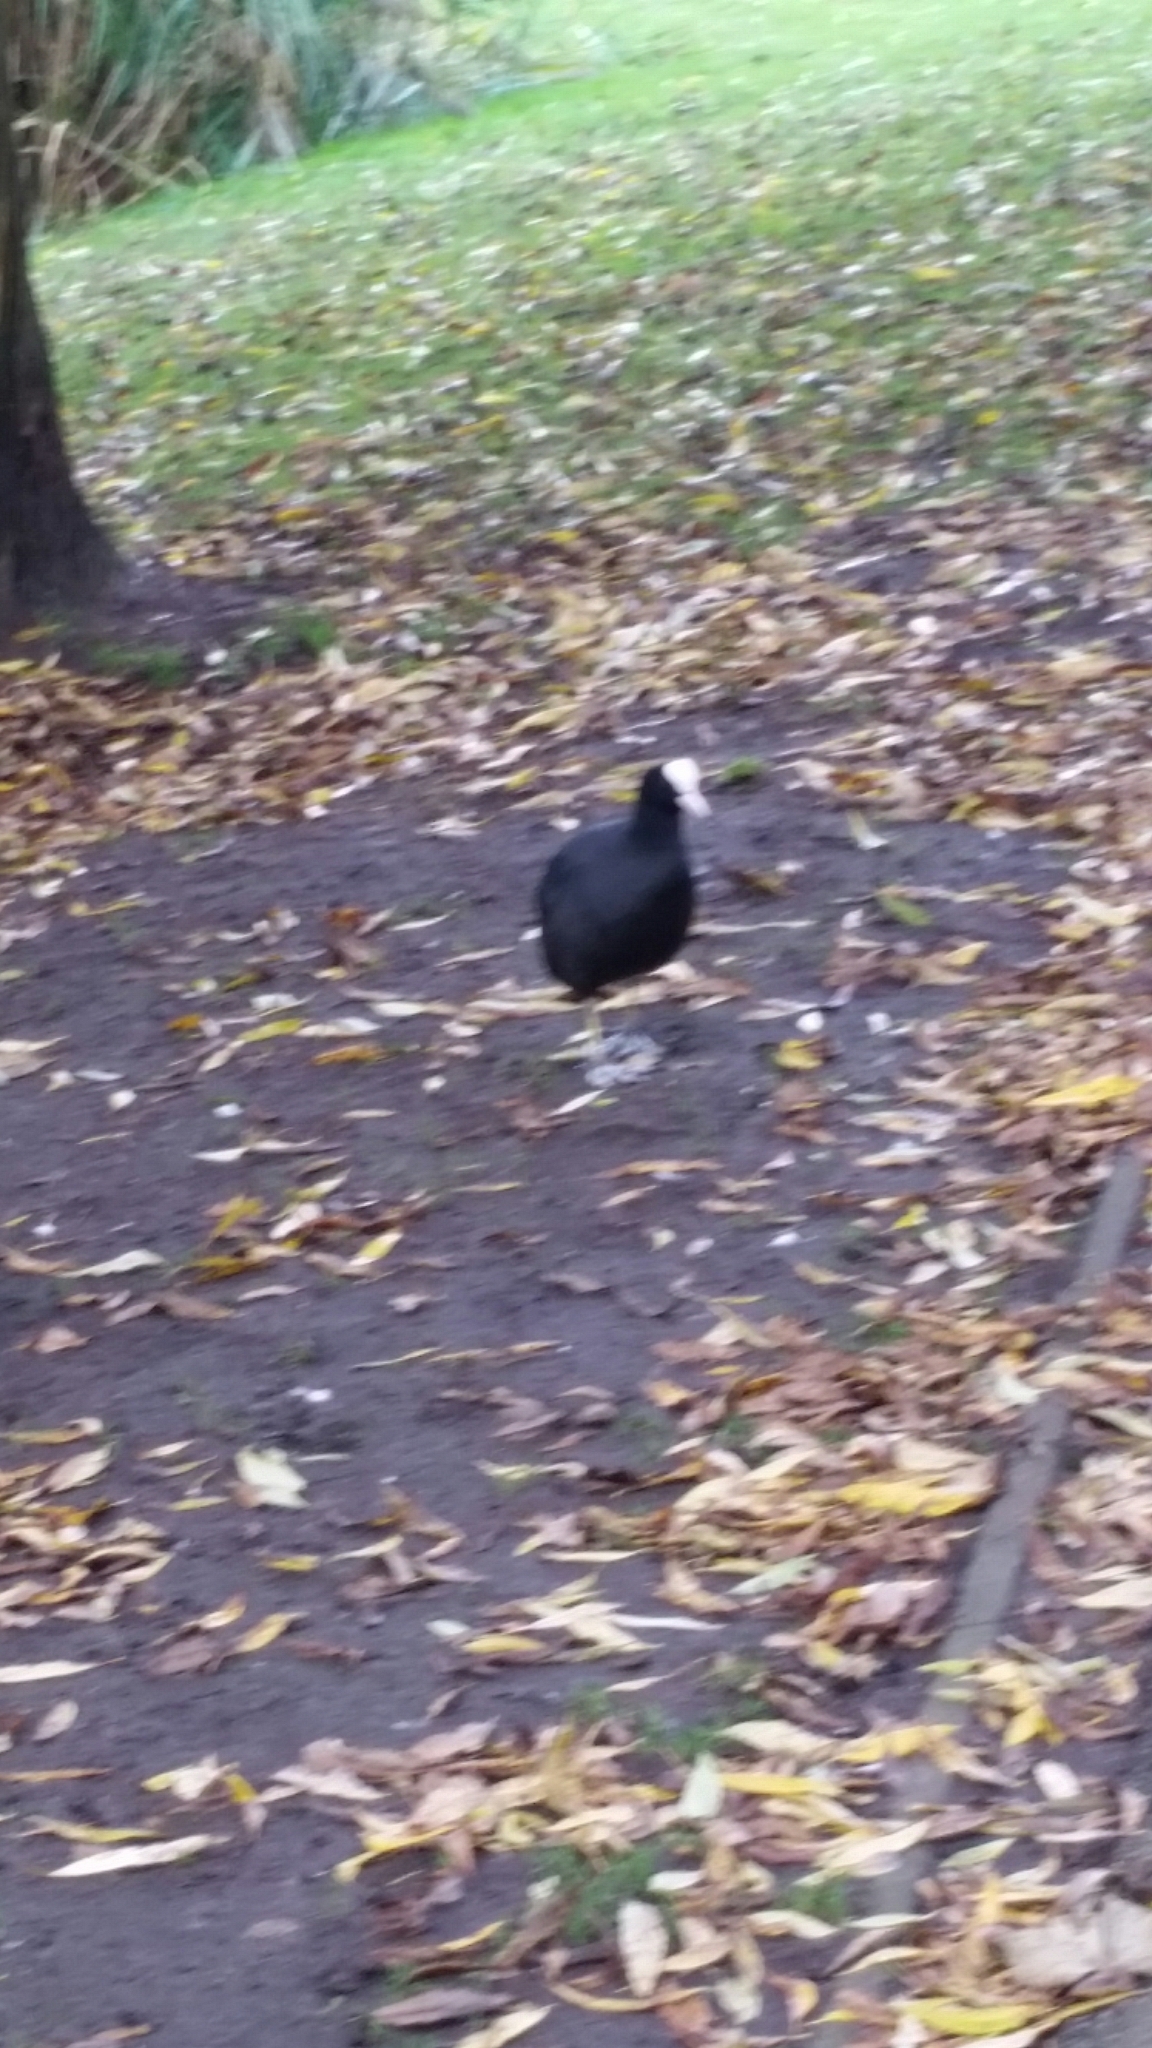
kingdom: Animalia
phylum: Chordata
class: Aves
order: Gruiformes
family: Rallidae
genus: Fulica
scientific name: Fulica atra
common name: Eurasian coot
